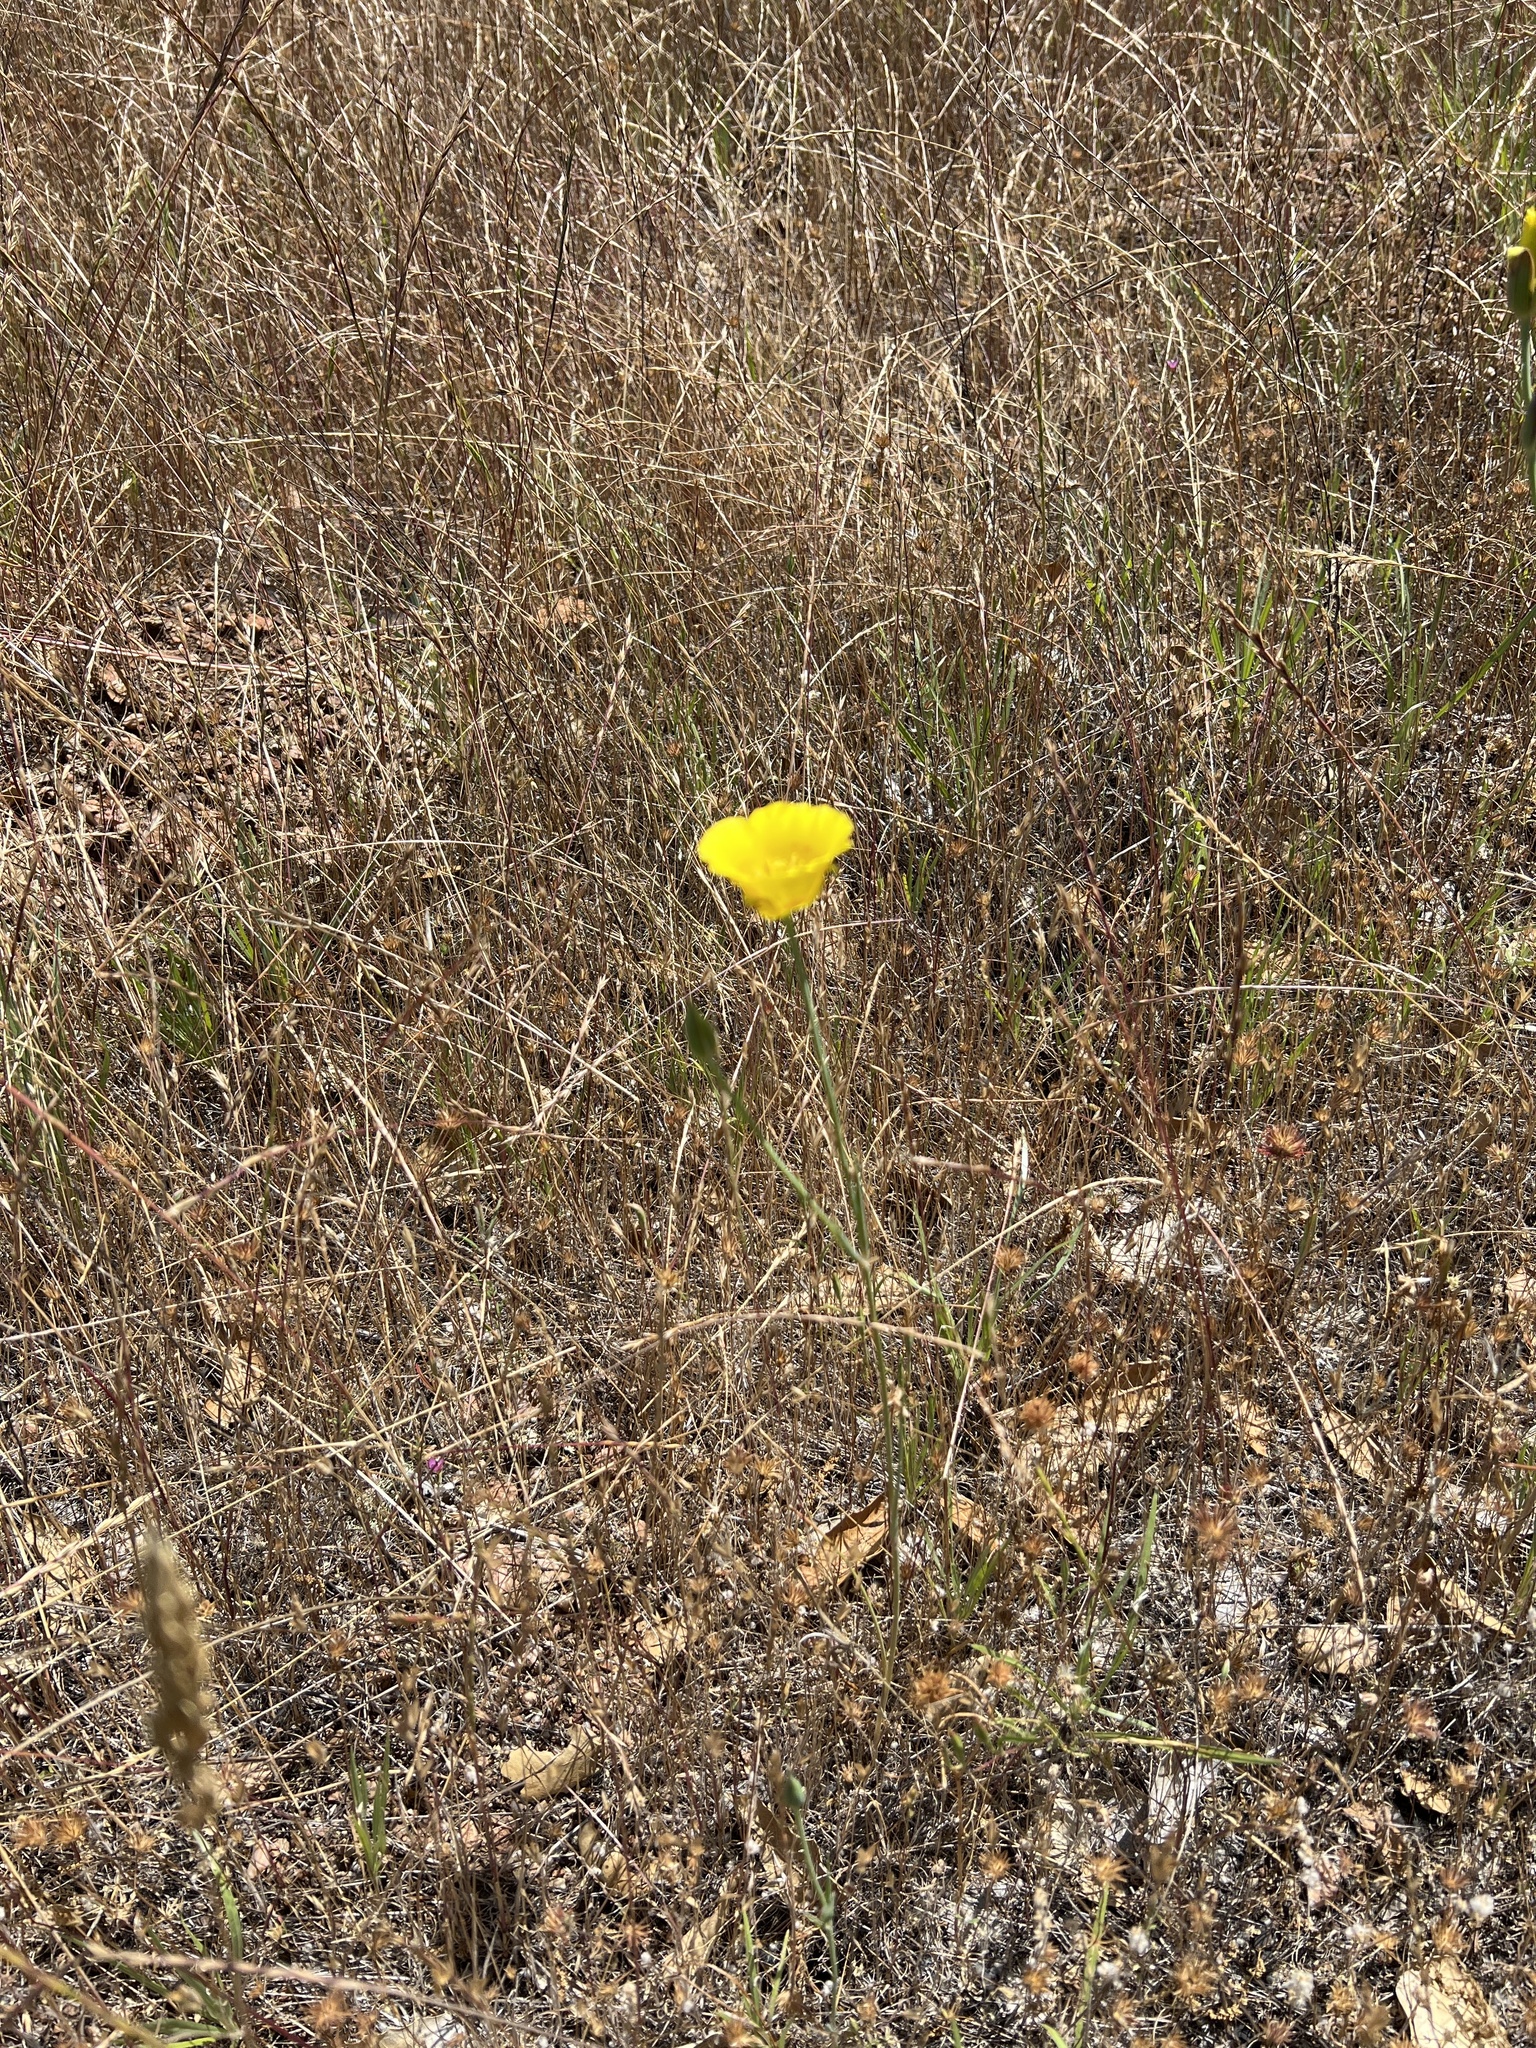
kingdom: Plantae
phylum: Tracheophyta
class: Liliopsida
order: Liliales
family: Liliaceae
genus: Calochortus
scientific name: Calochortus luteus
